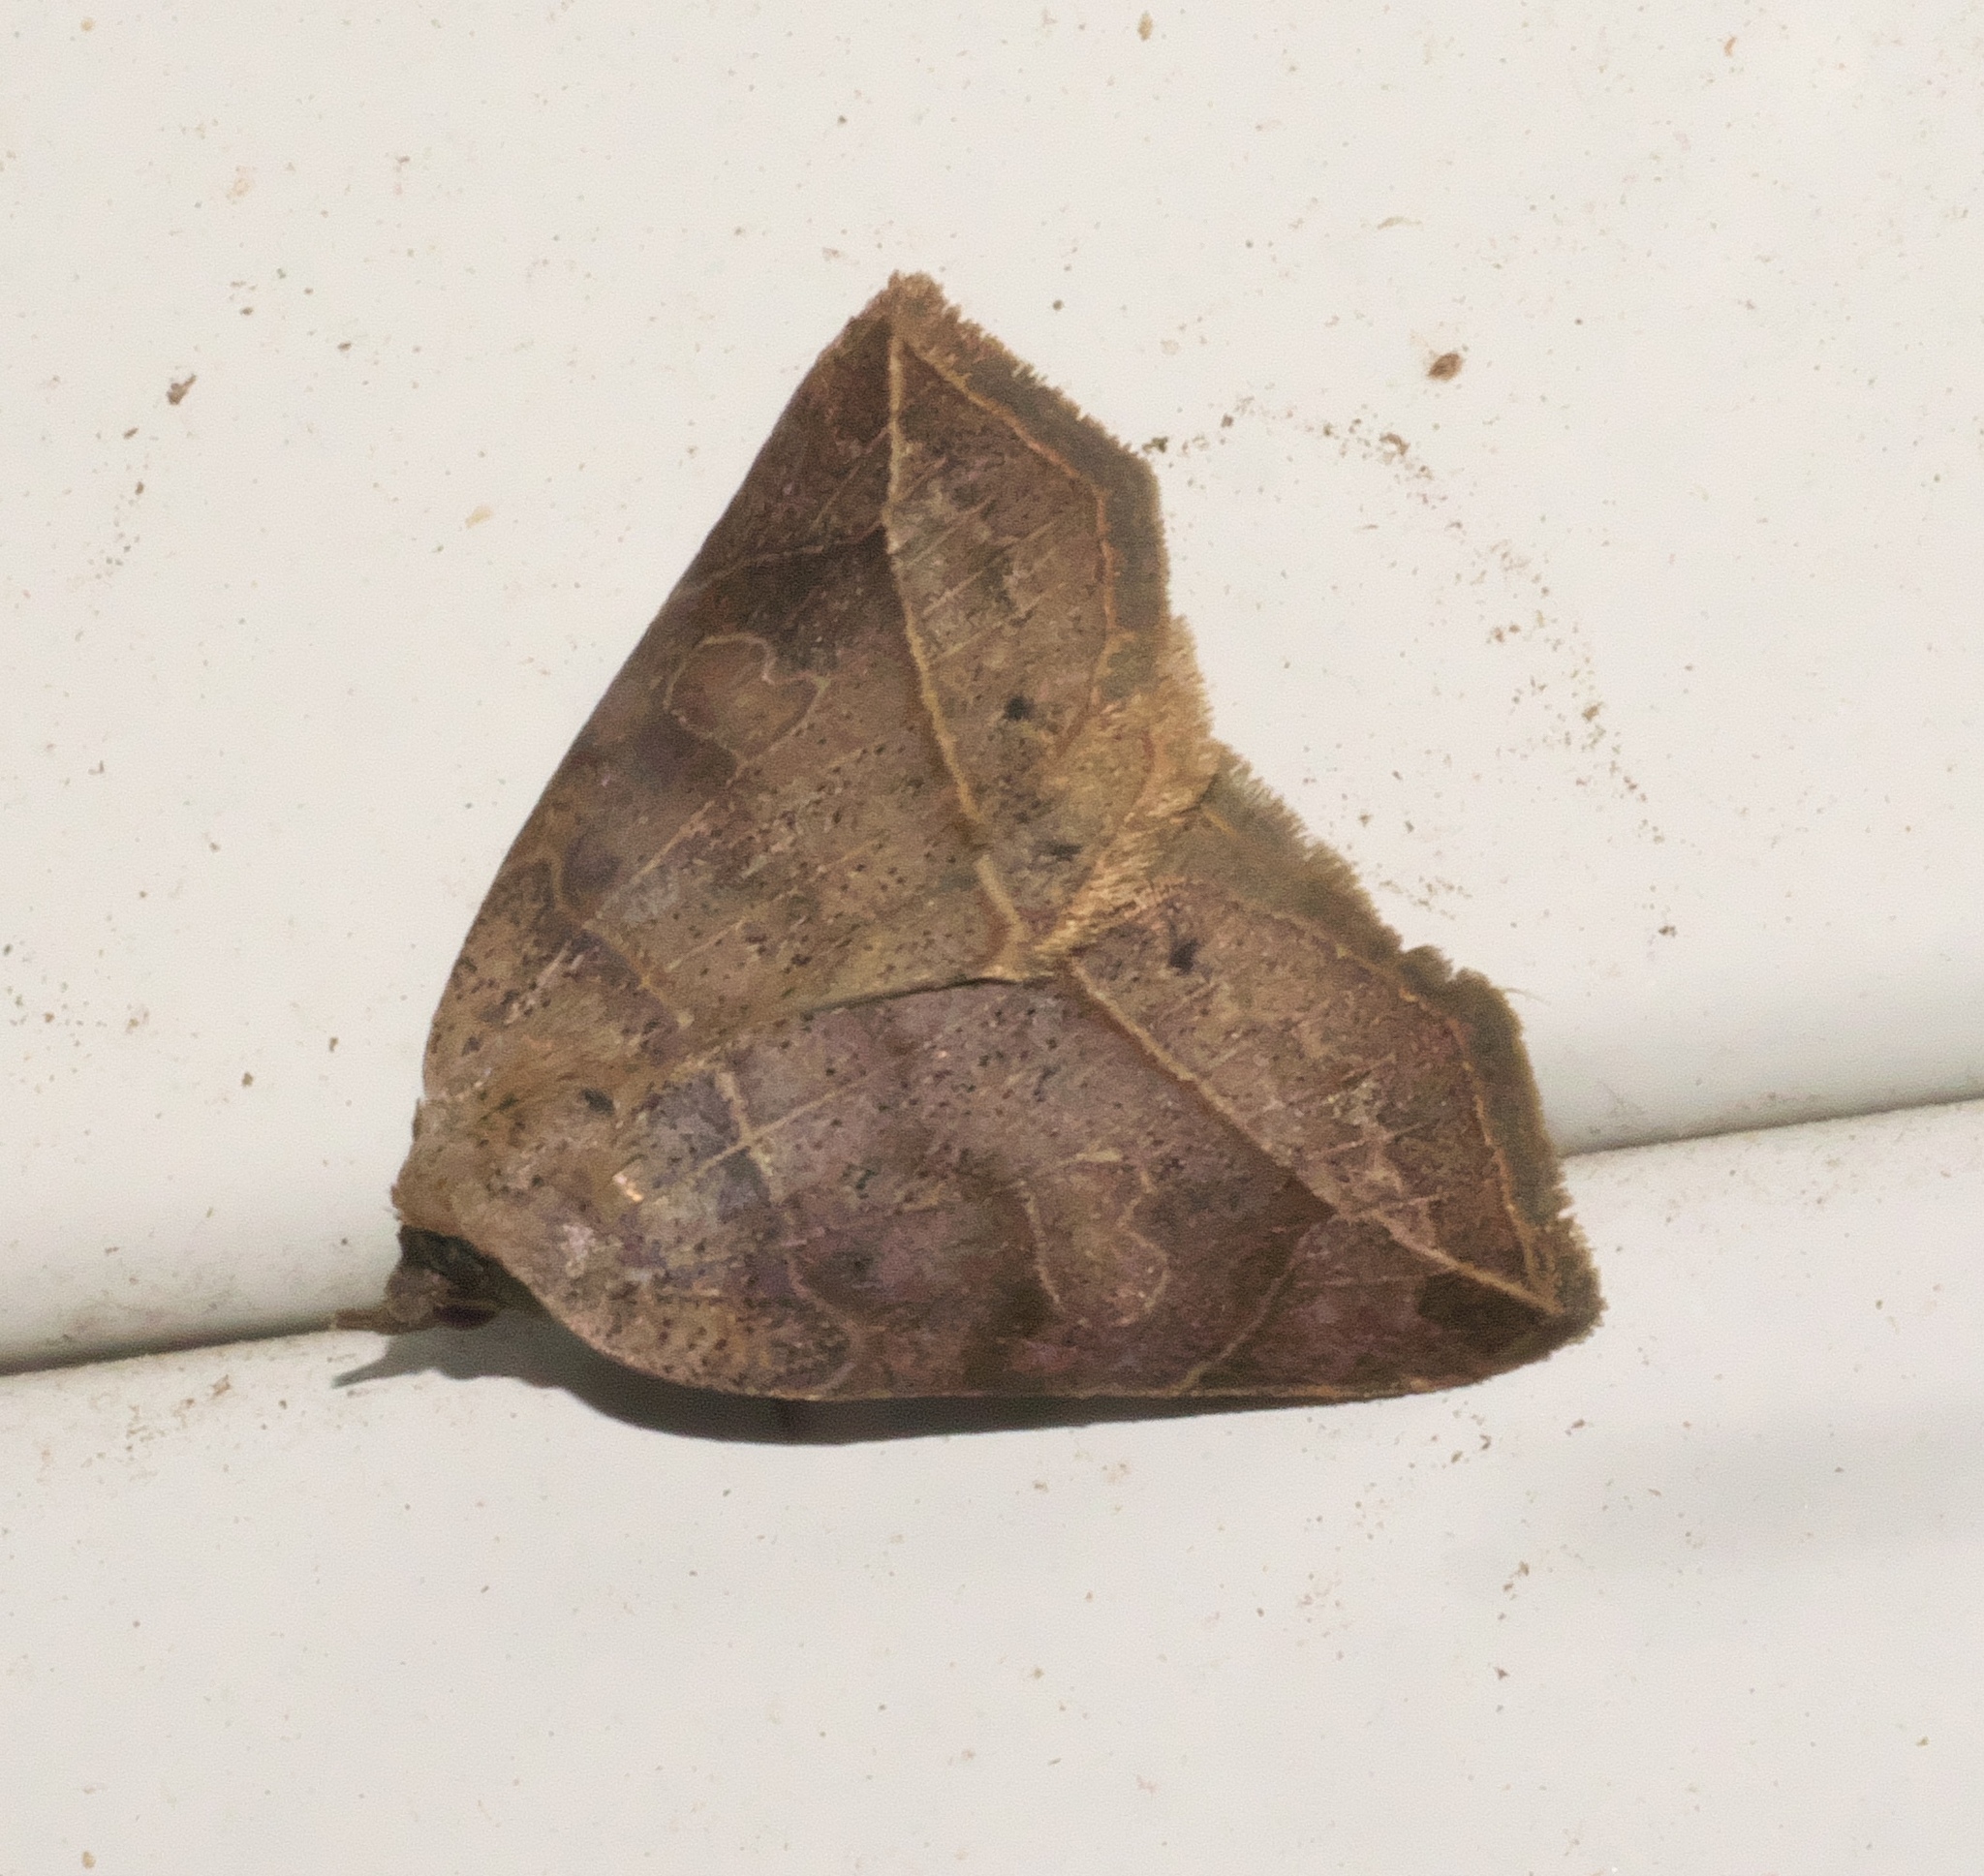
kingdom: Animalia
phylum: Arthropoda
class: Insecta
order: Lepidoptera
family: Erebidae
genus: Isogona
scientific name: Isogona tenuis
